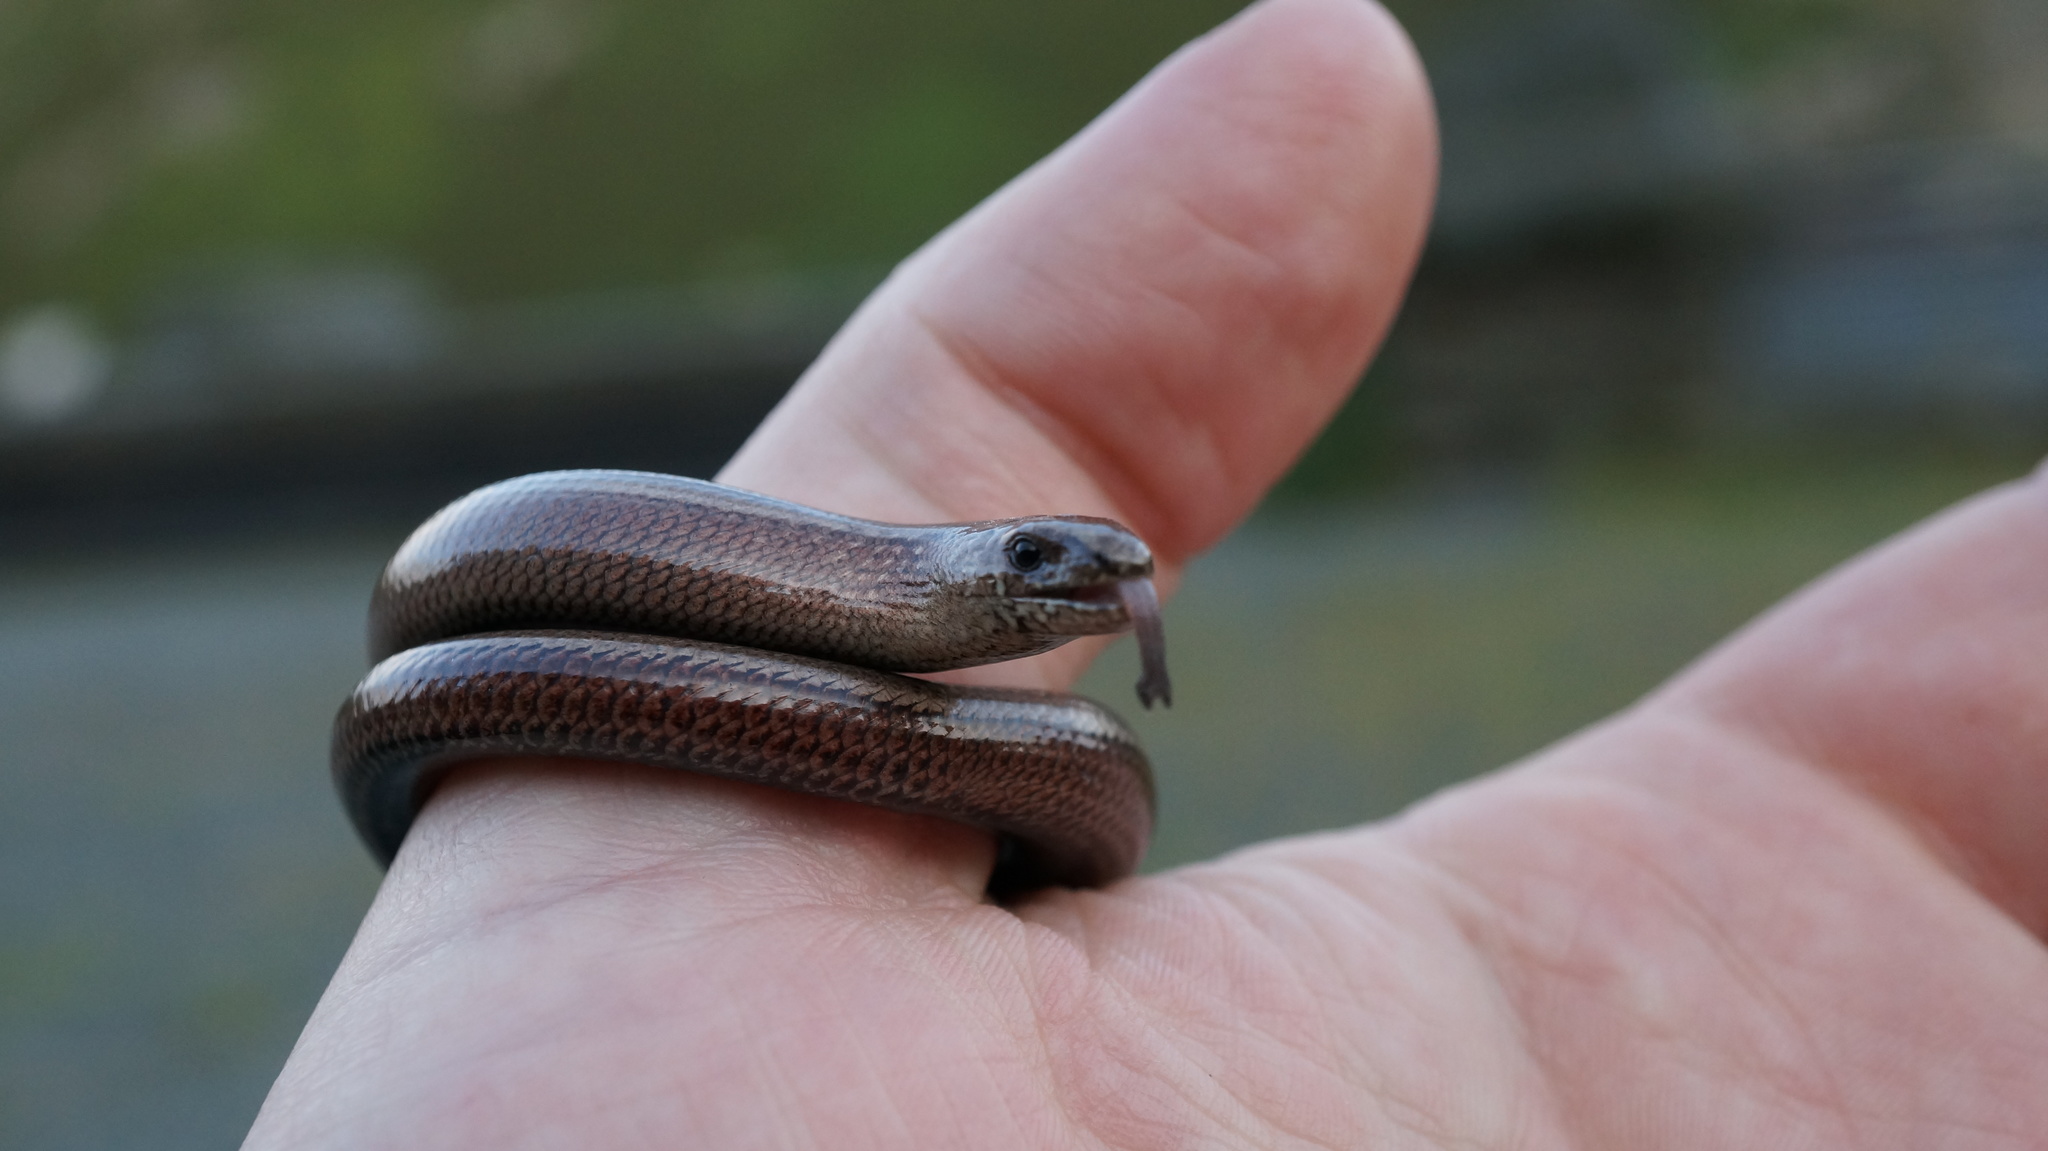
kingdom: Animalia
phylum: Chordata
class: Squamata
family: Anguidae
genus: Anguis
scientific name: Anguis fragilis
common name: Slow worm
